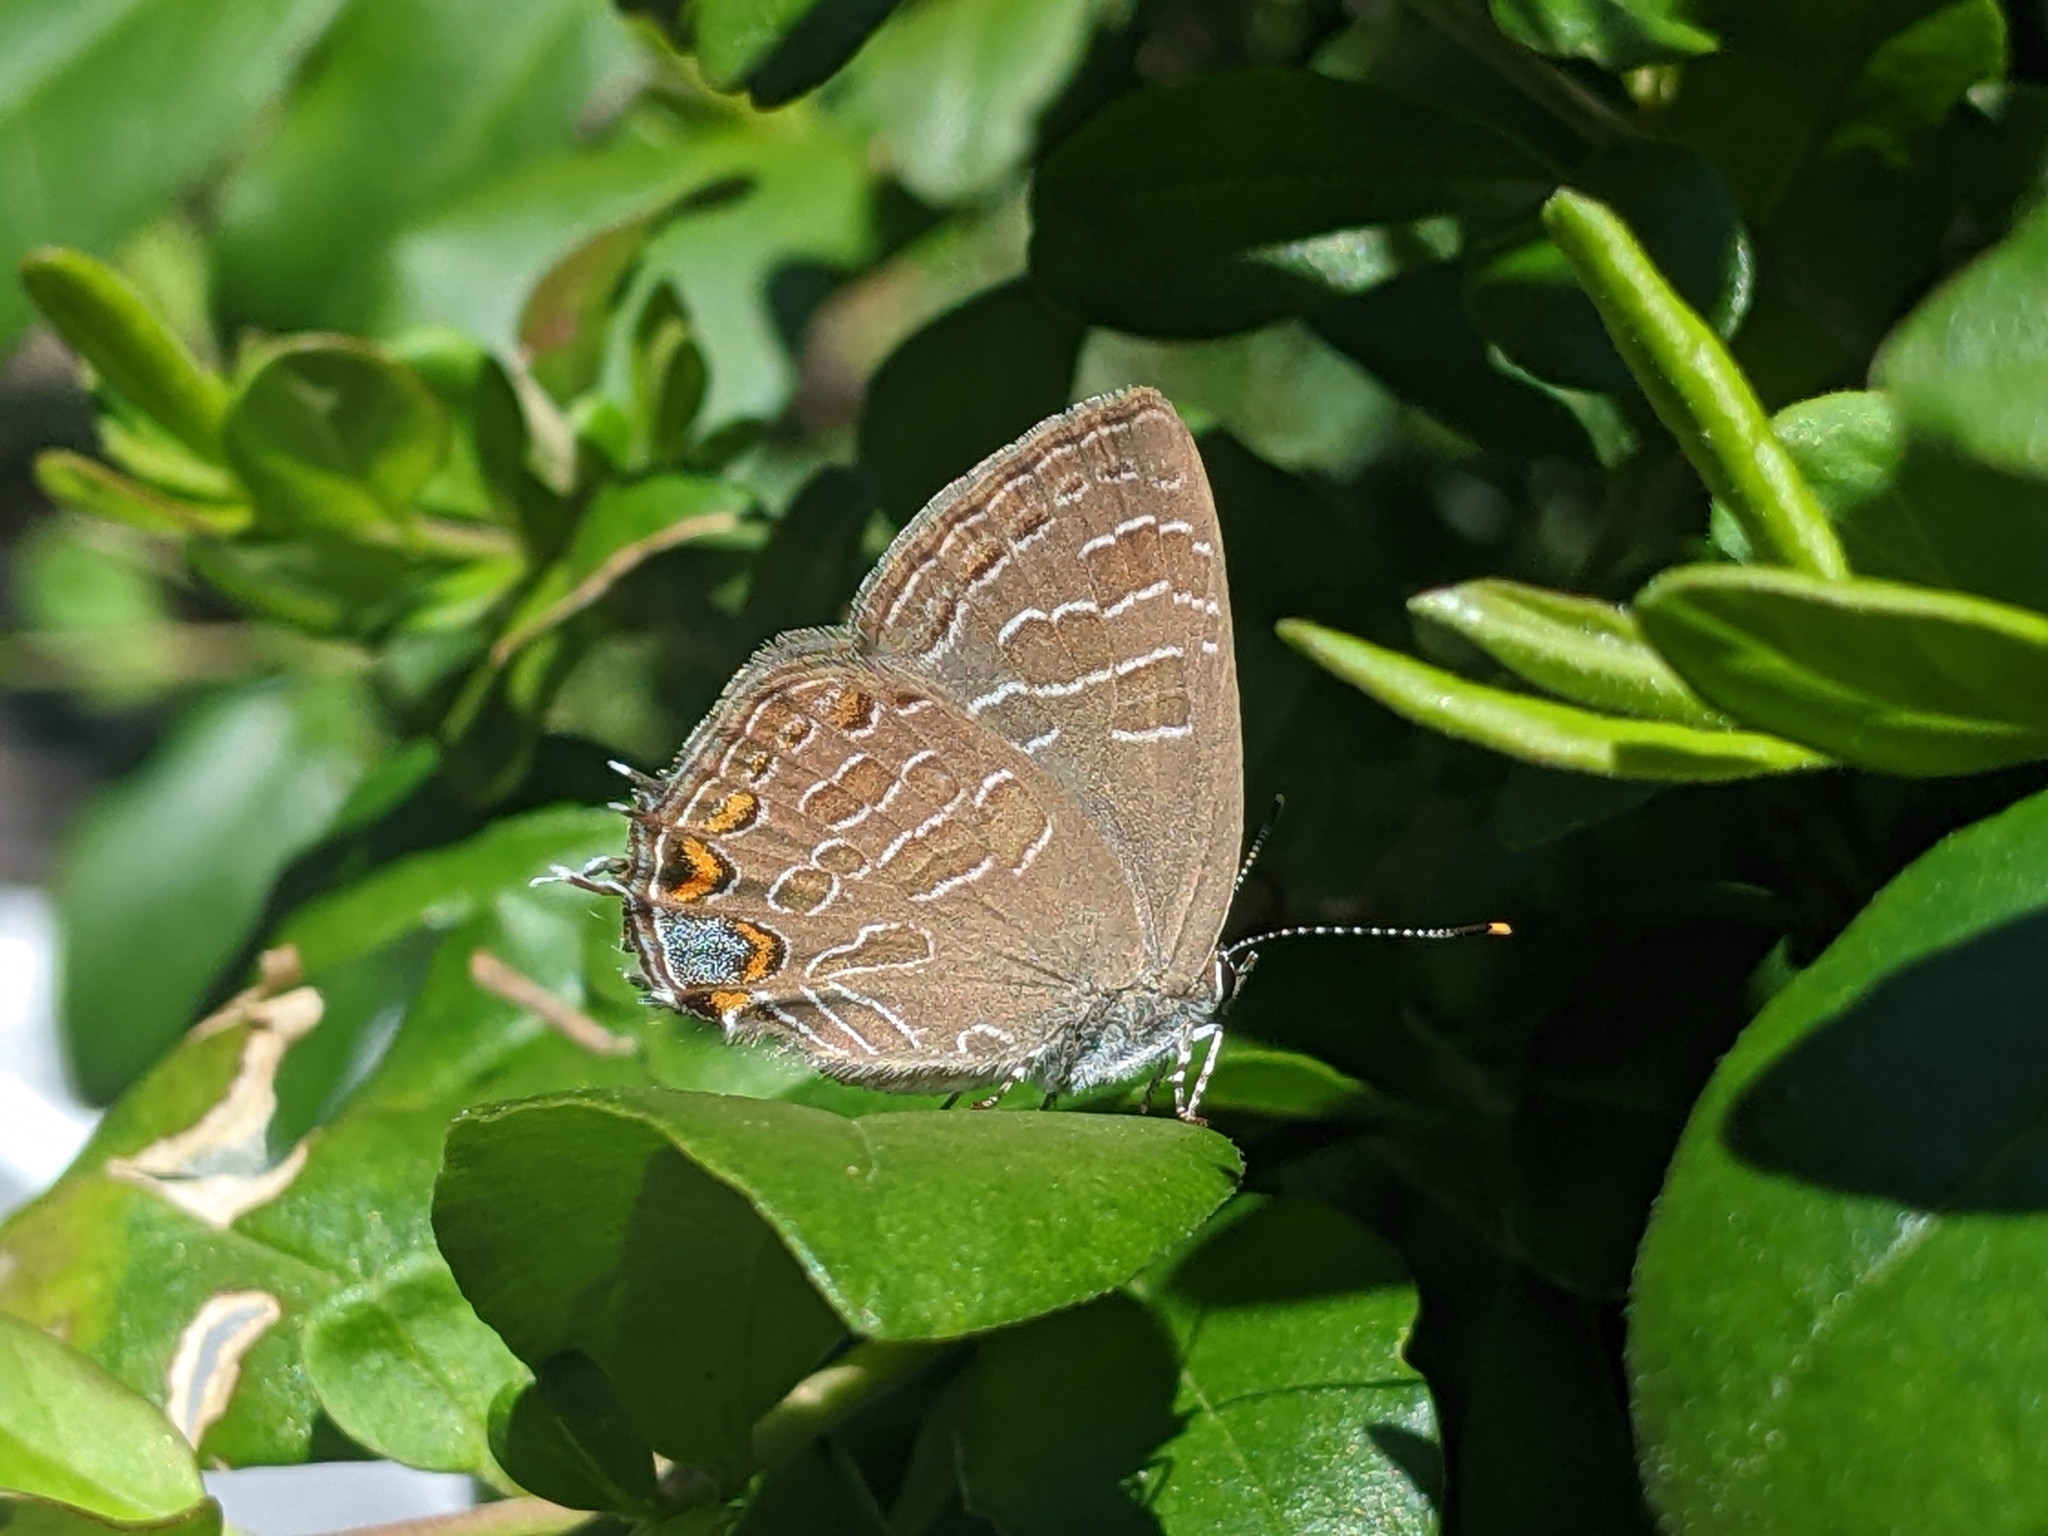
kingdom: Animalia
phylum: Arthropoda
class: Insecta
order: Lepidoptera
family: Lycaenidae
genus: Satyrium
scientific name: Satyrium liparops
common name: Striped hairstreak
